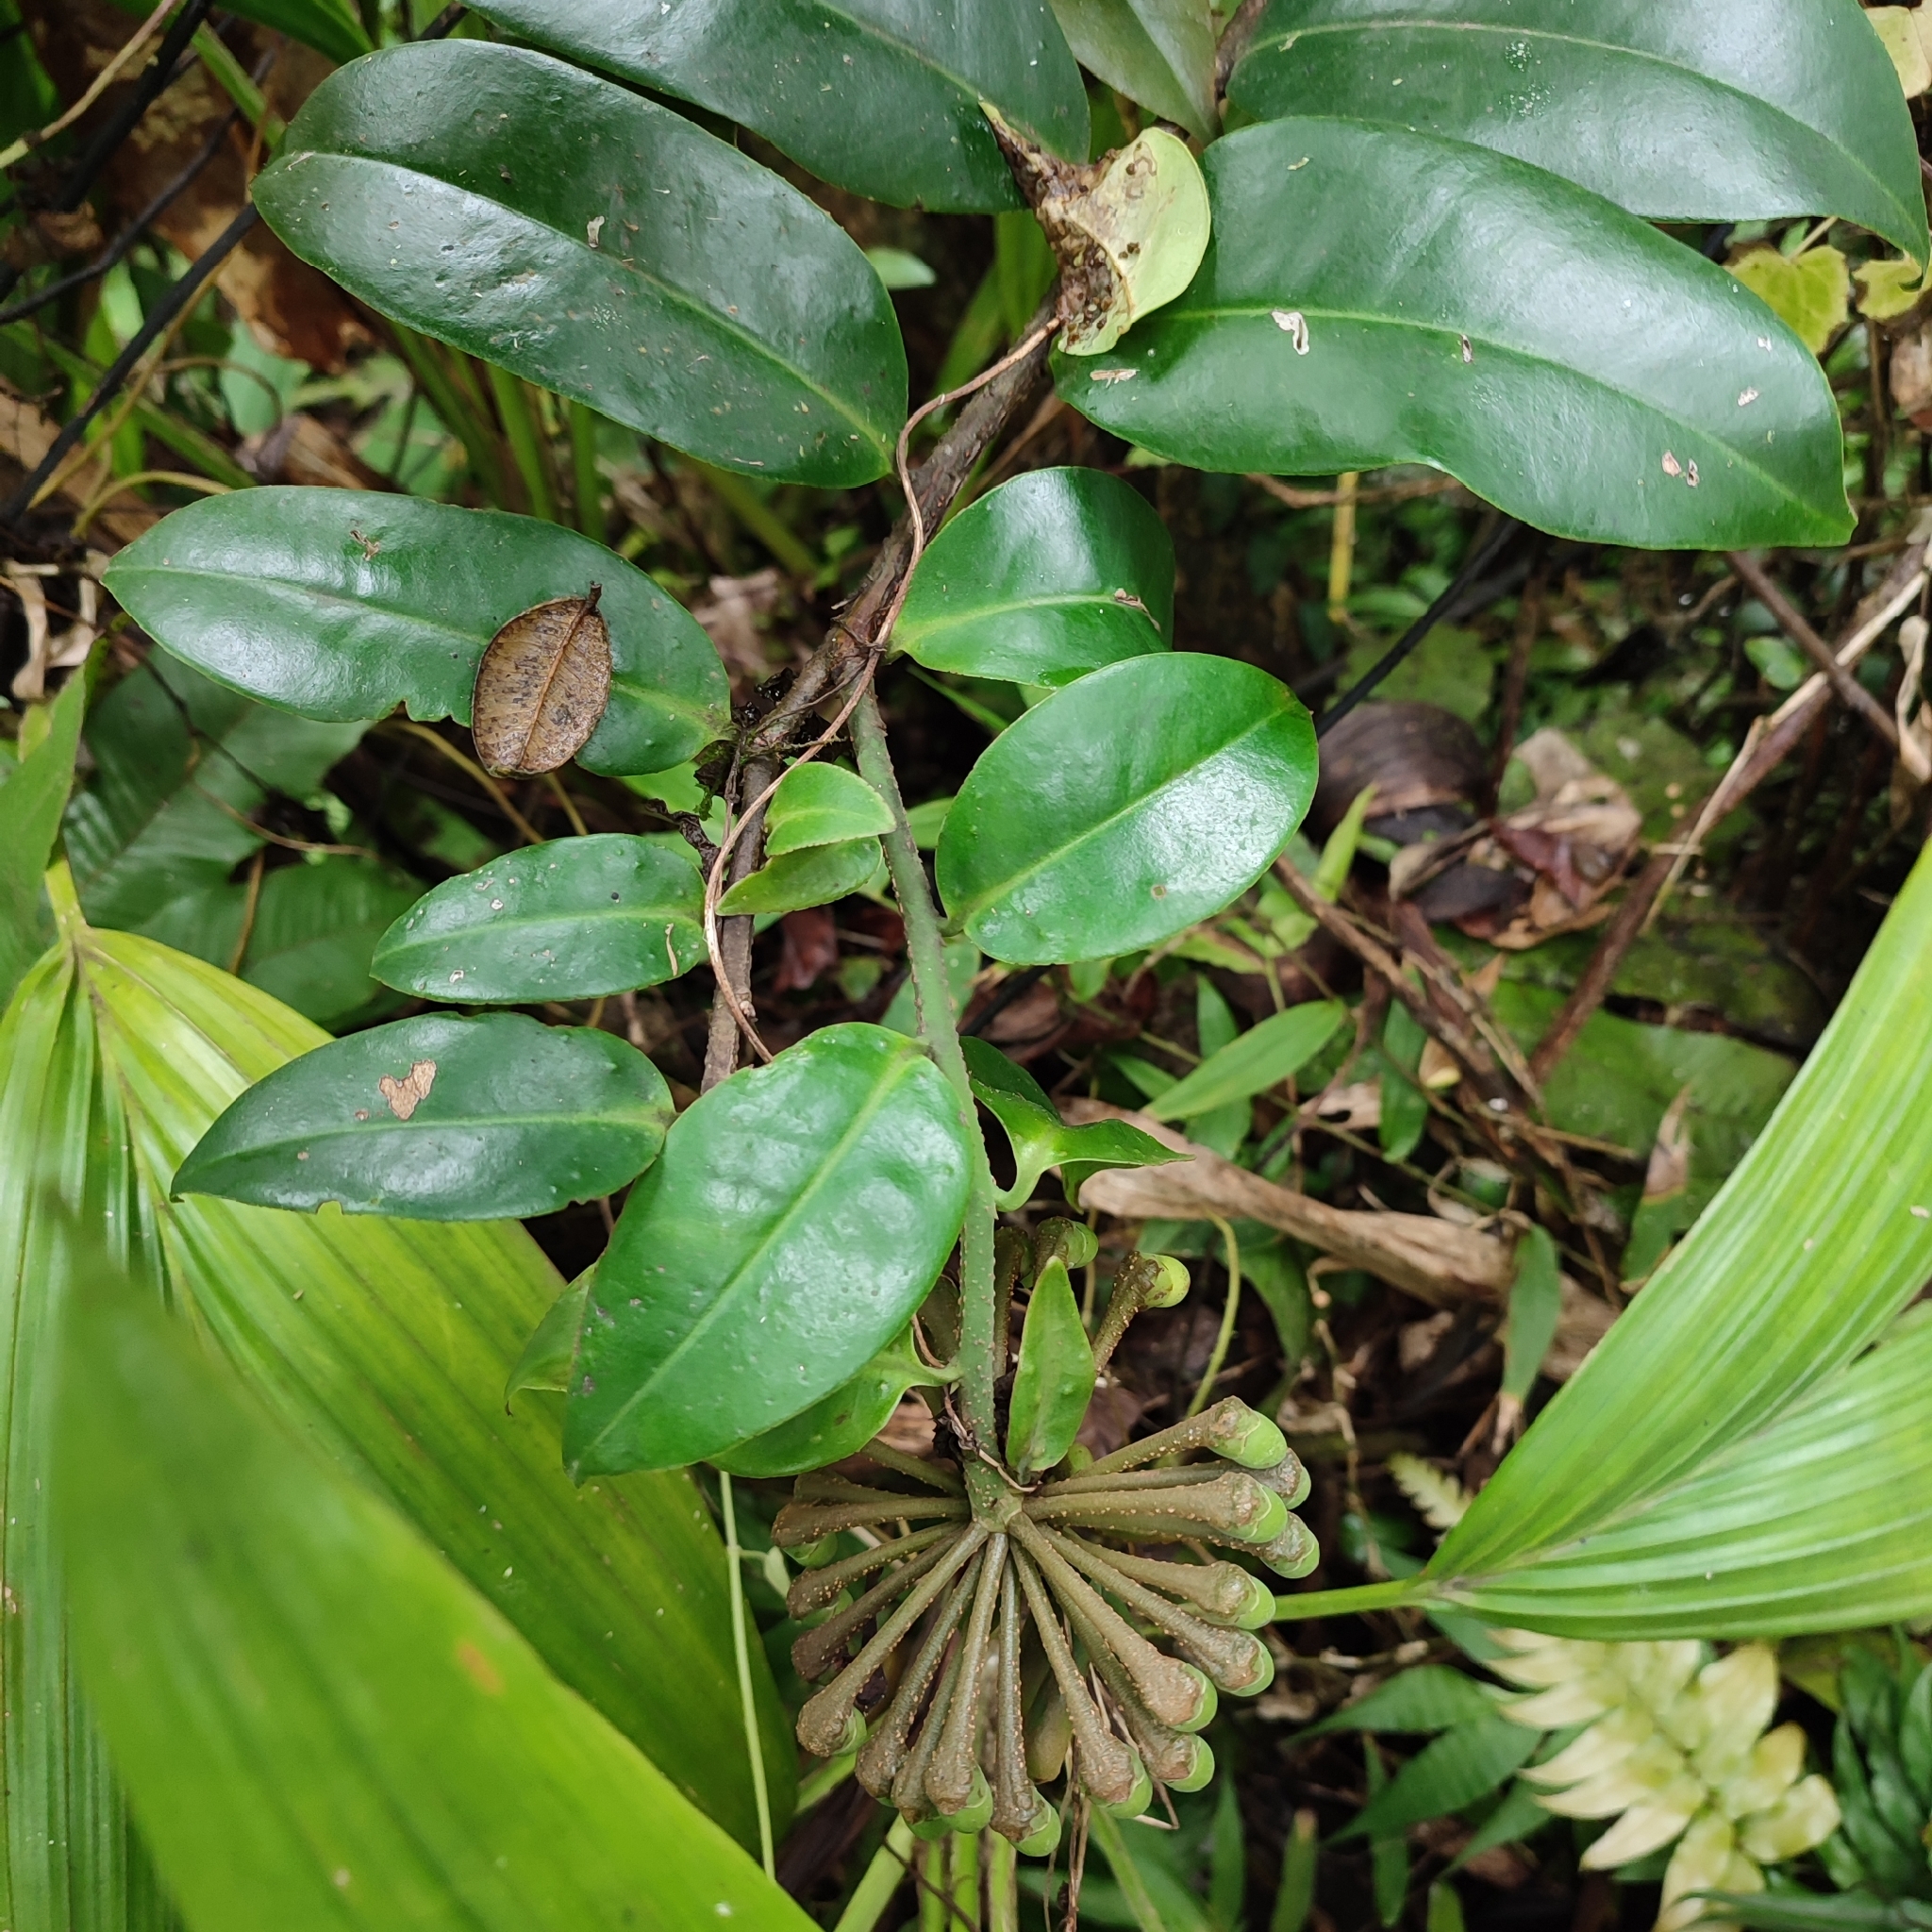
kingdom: Plantae
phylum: Tracheophyta
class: Magnoliopsida
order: Ericales
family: Marcgraviaceae
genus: Marcgravia
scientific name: Marcgravia umbellata
